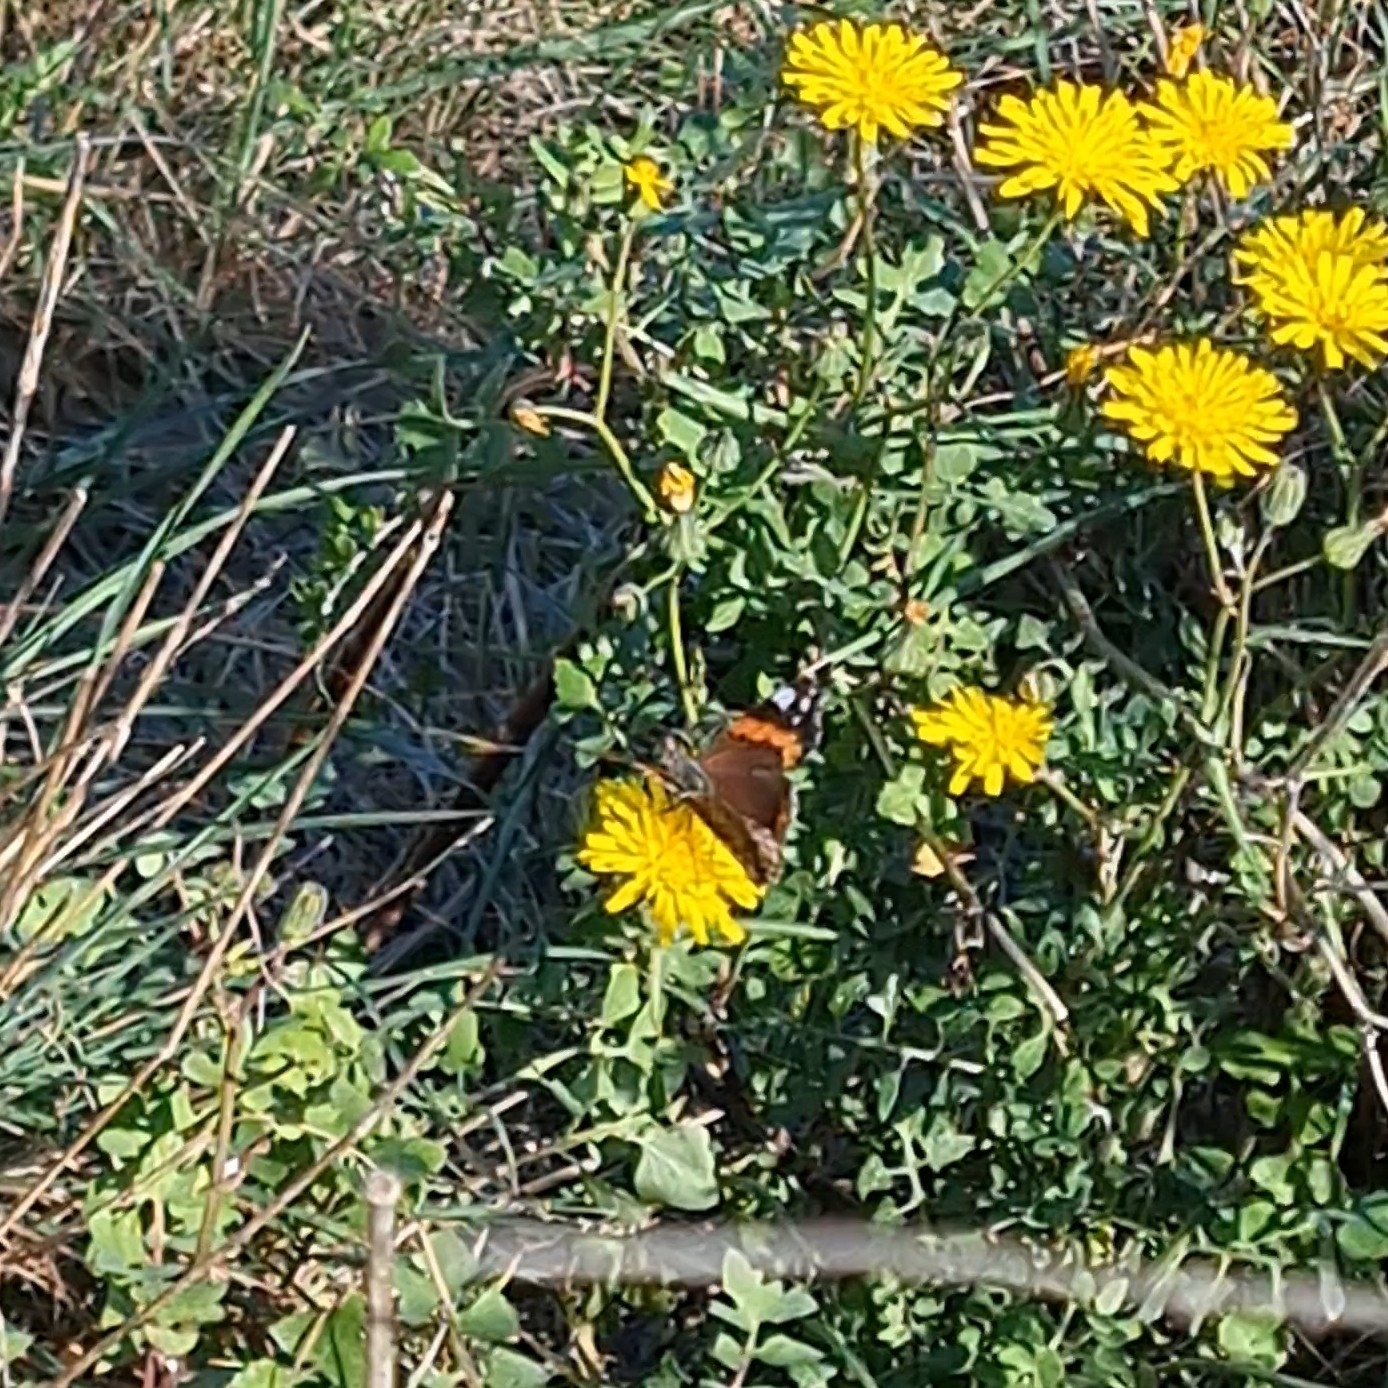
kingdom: Animalia
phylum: Arthropoda
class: Insecta
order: Lepidoptera
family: Nymphalidae
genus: Vanessa
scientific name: Vanessa atalanta
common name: Red admiral
